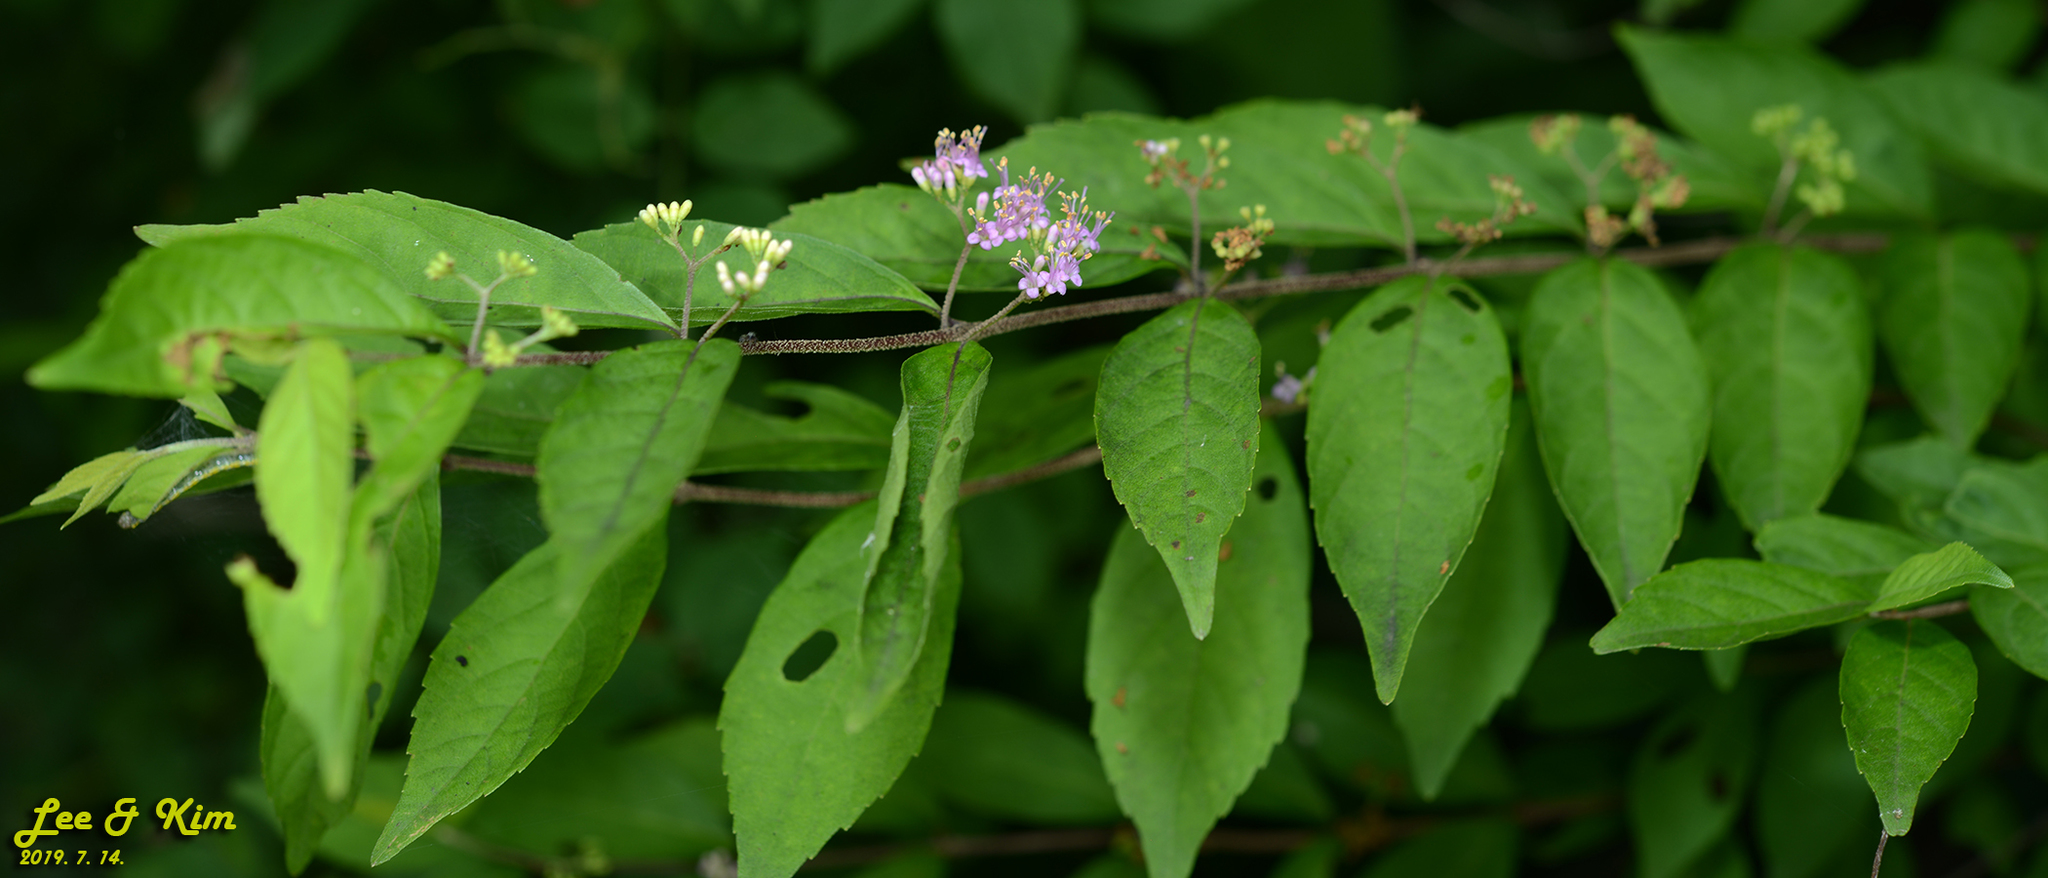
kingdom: Plantae
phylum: Tracheophyta
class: Magnoliopsida
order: Lamiales
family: Lamiaceae
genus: Callicarpa
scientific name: Callicarpa dichotoma
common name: Purple beauty-berry
